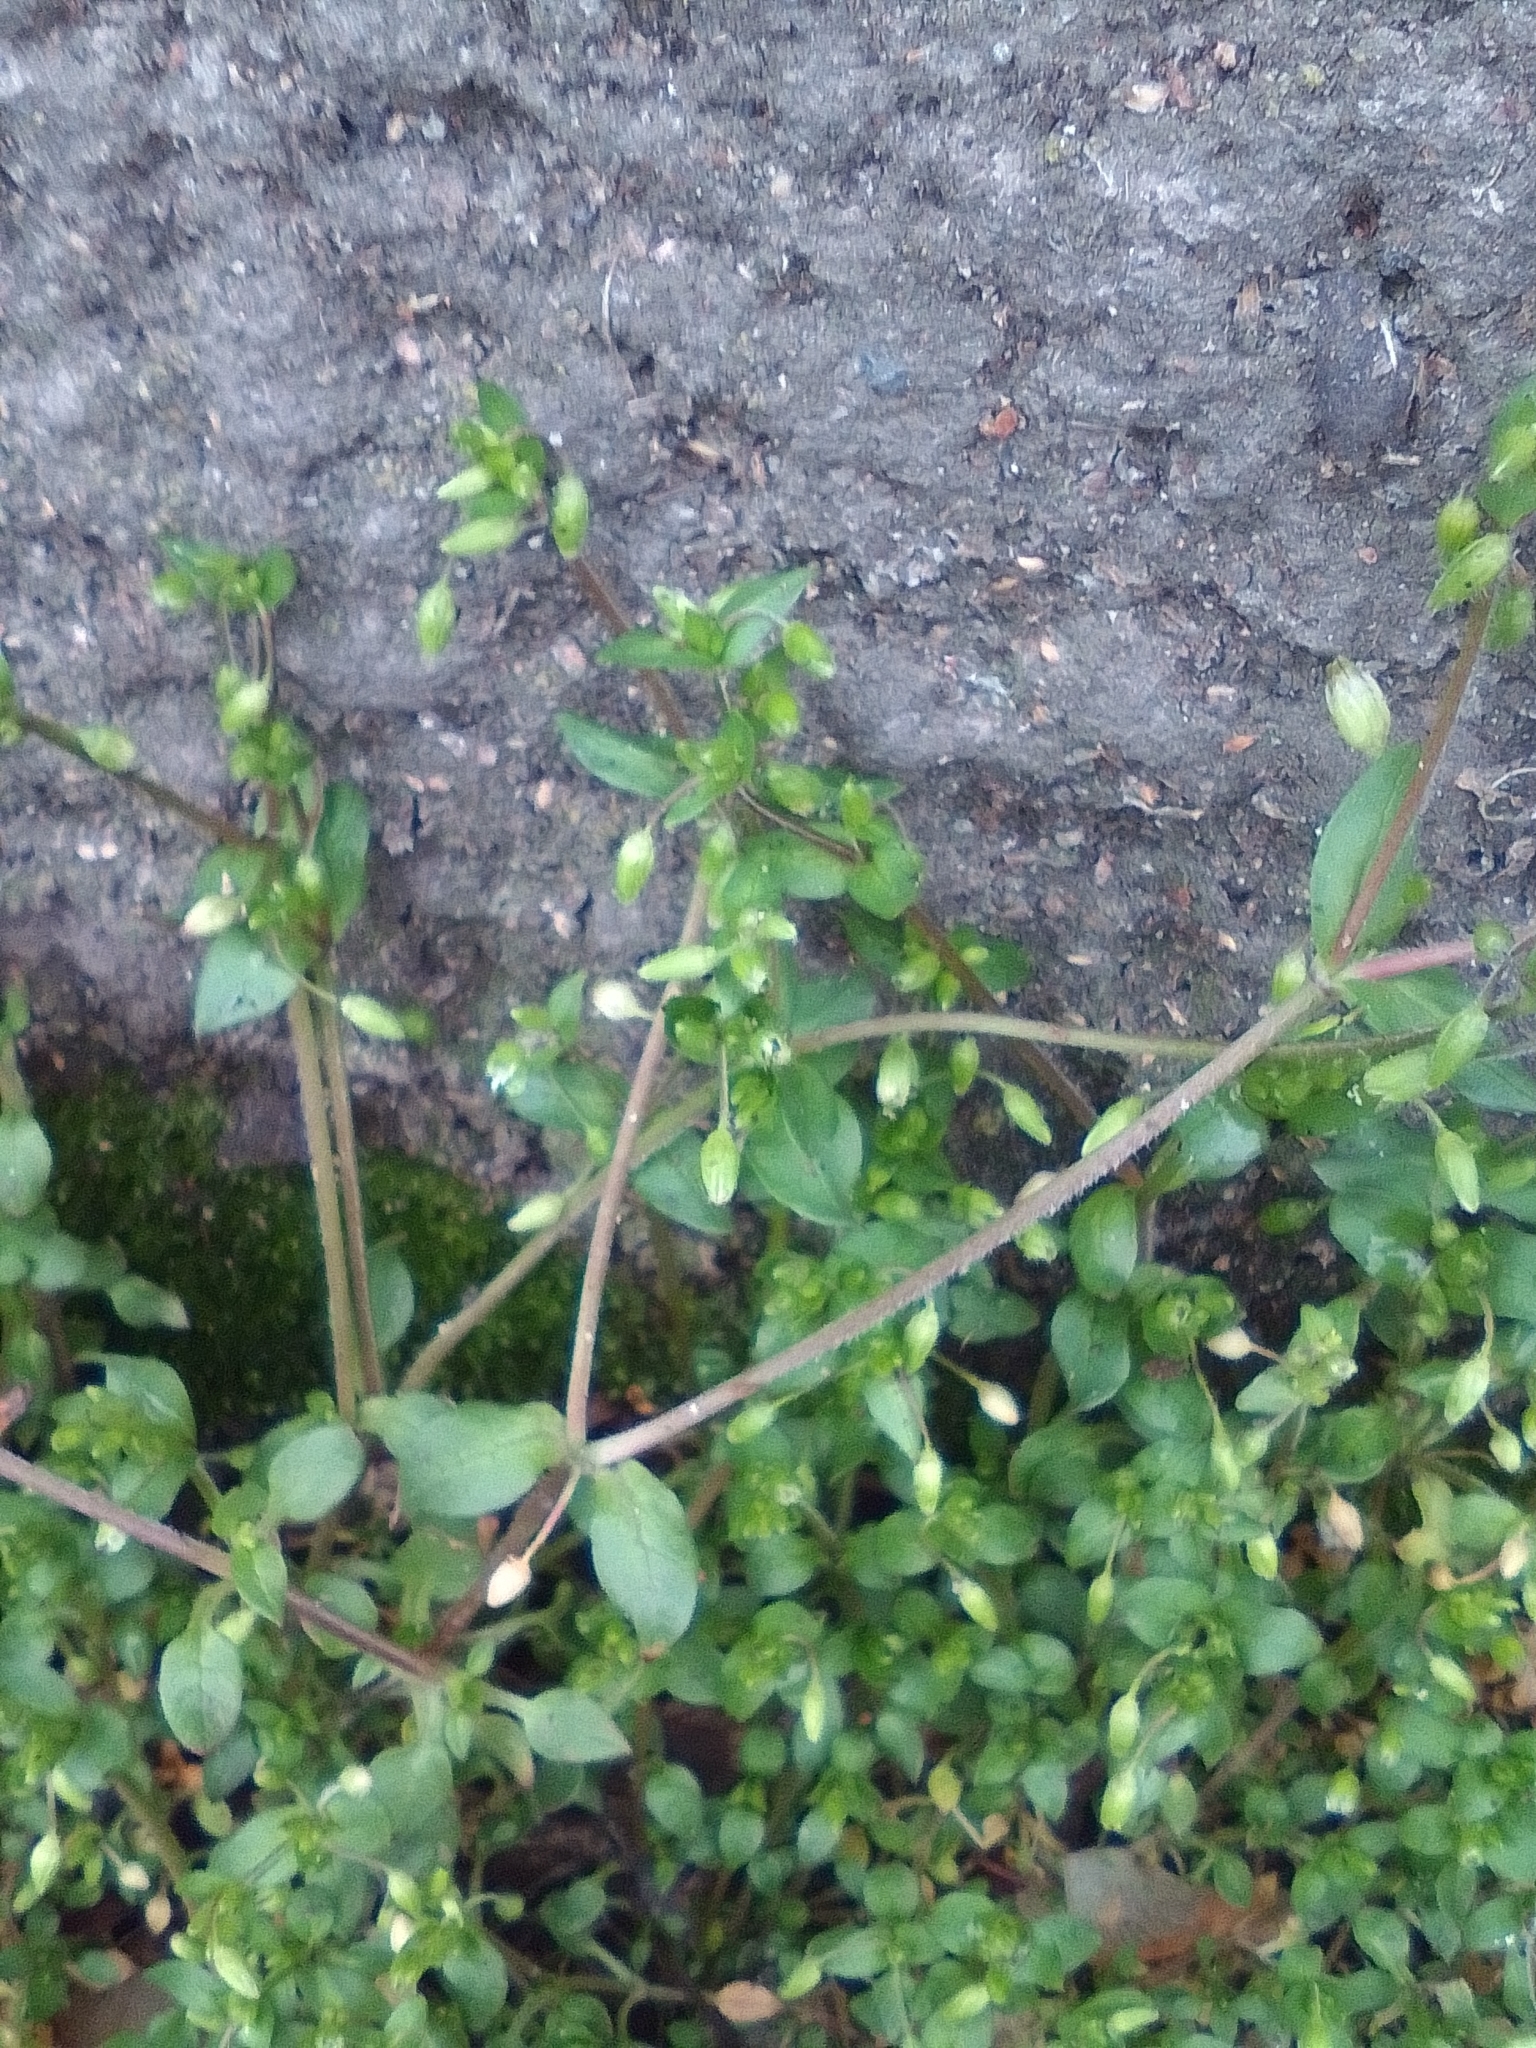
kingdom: Plantae
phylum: Tracheophyta
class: Magnoliopsida
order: Caryophyllales
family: Caryophyllaceae
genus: Stellaria
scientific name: Stellaria media
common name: Common chickweed
